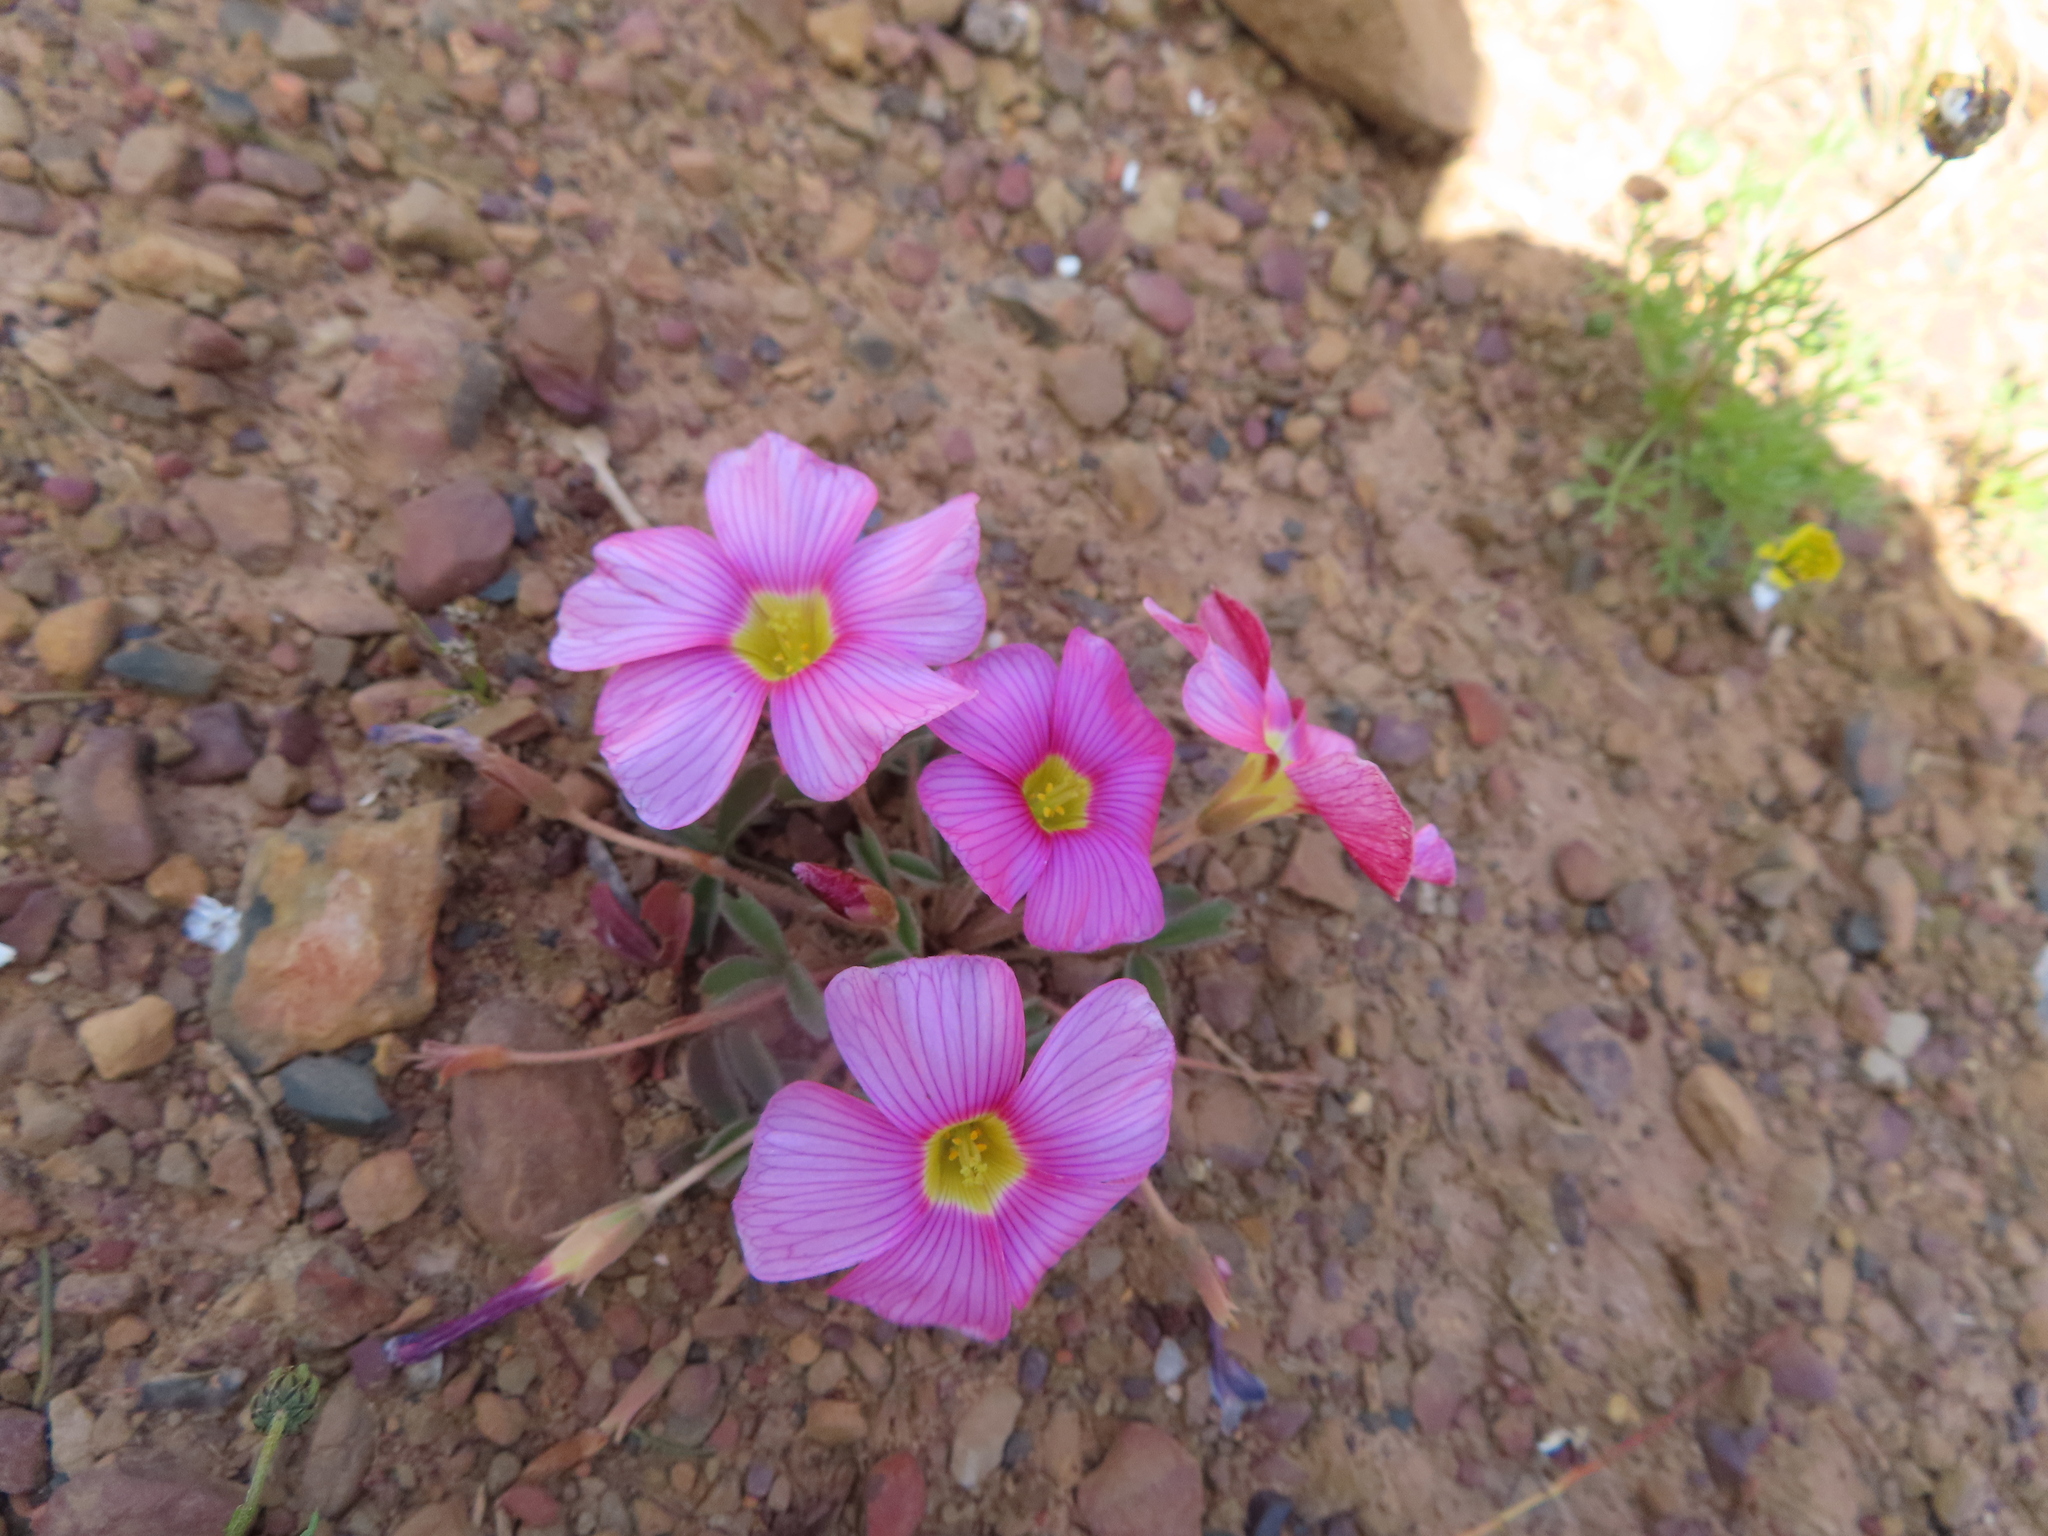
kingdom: Plantae
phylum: Tracheophyta
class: Magnoliopsida
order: Oxalidales
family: Oxalidaceae
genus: Oxalis
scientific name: Oxalis obtusa
